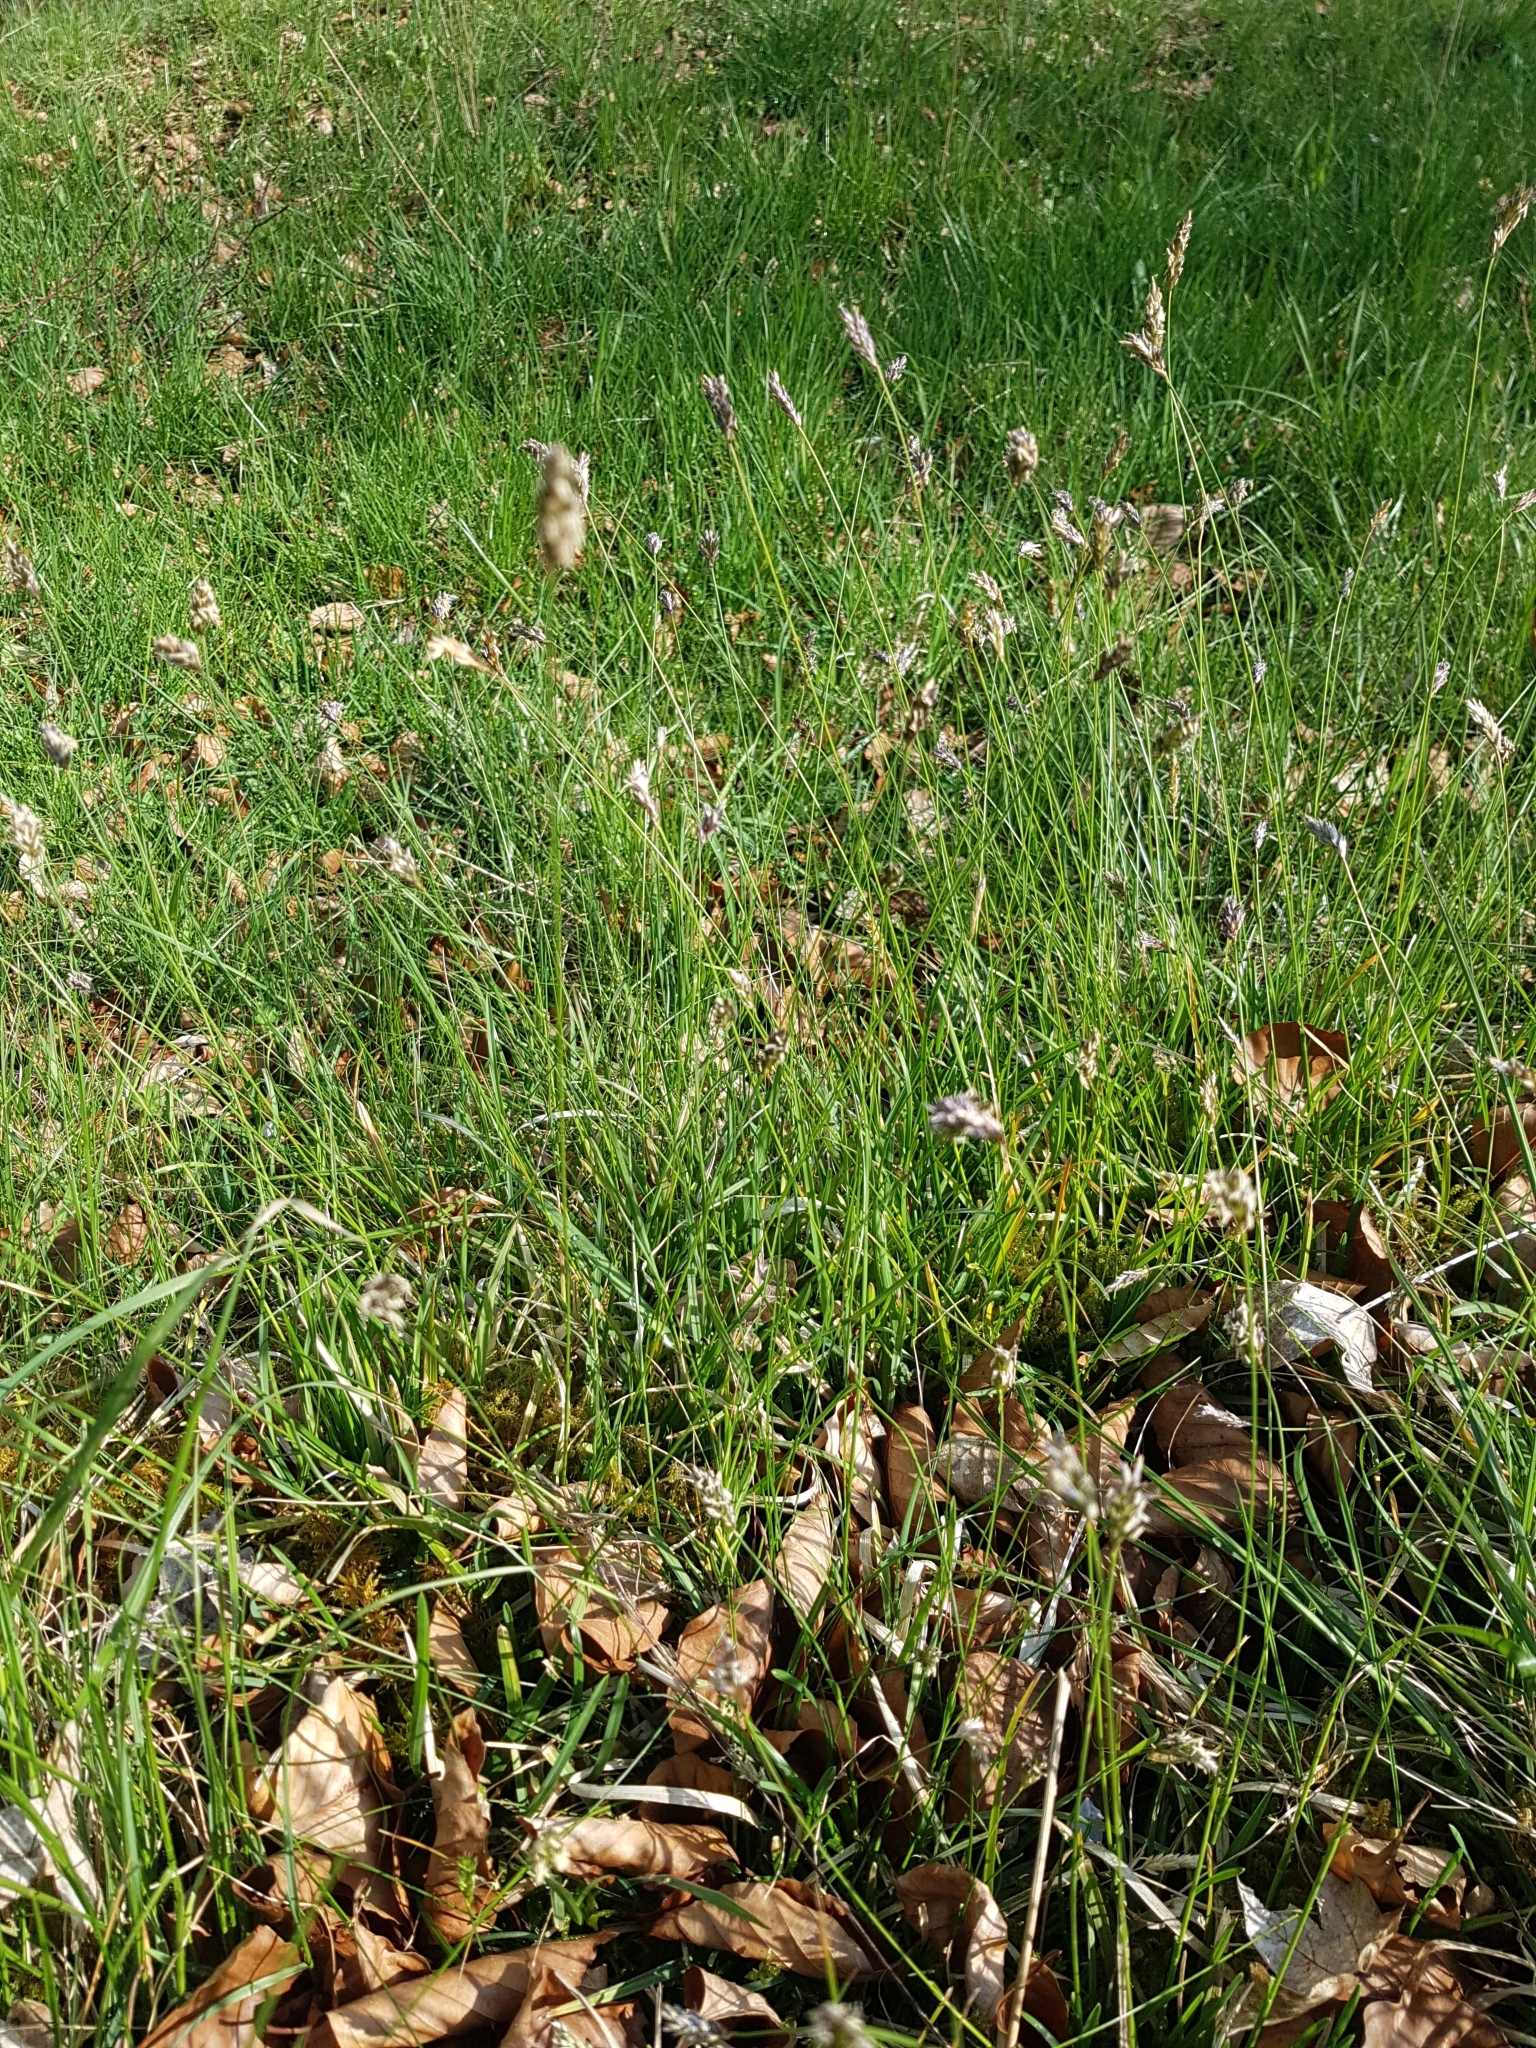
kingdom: Plantae
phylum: Tracheophyta
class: Liliopsida
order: Poales
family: Poaceae
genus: Sesleria
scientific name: Sesleria caerulea
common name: Blue moor-grass
